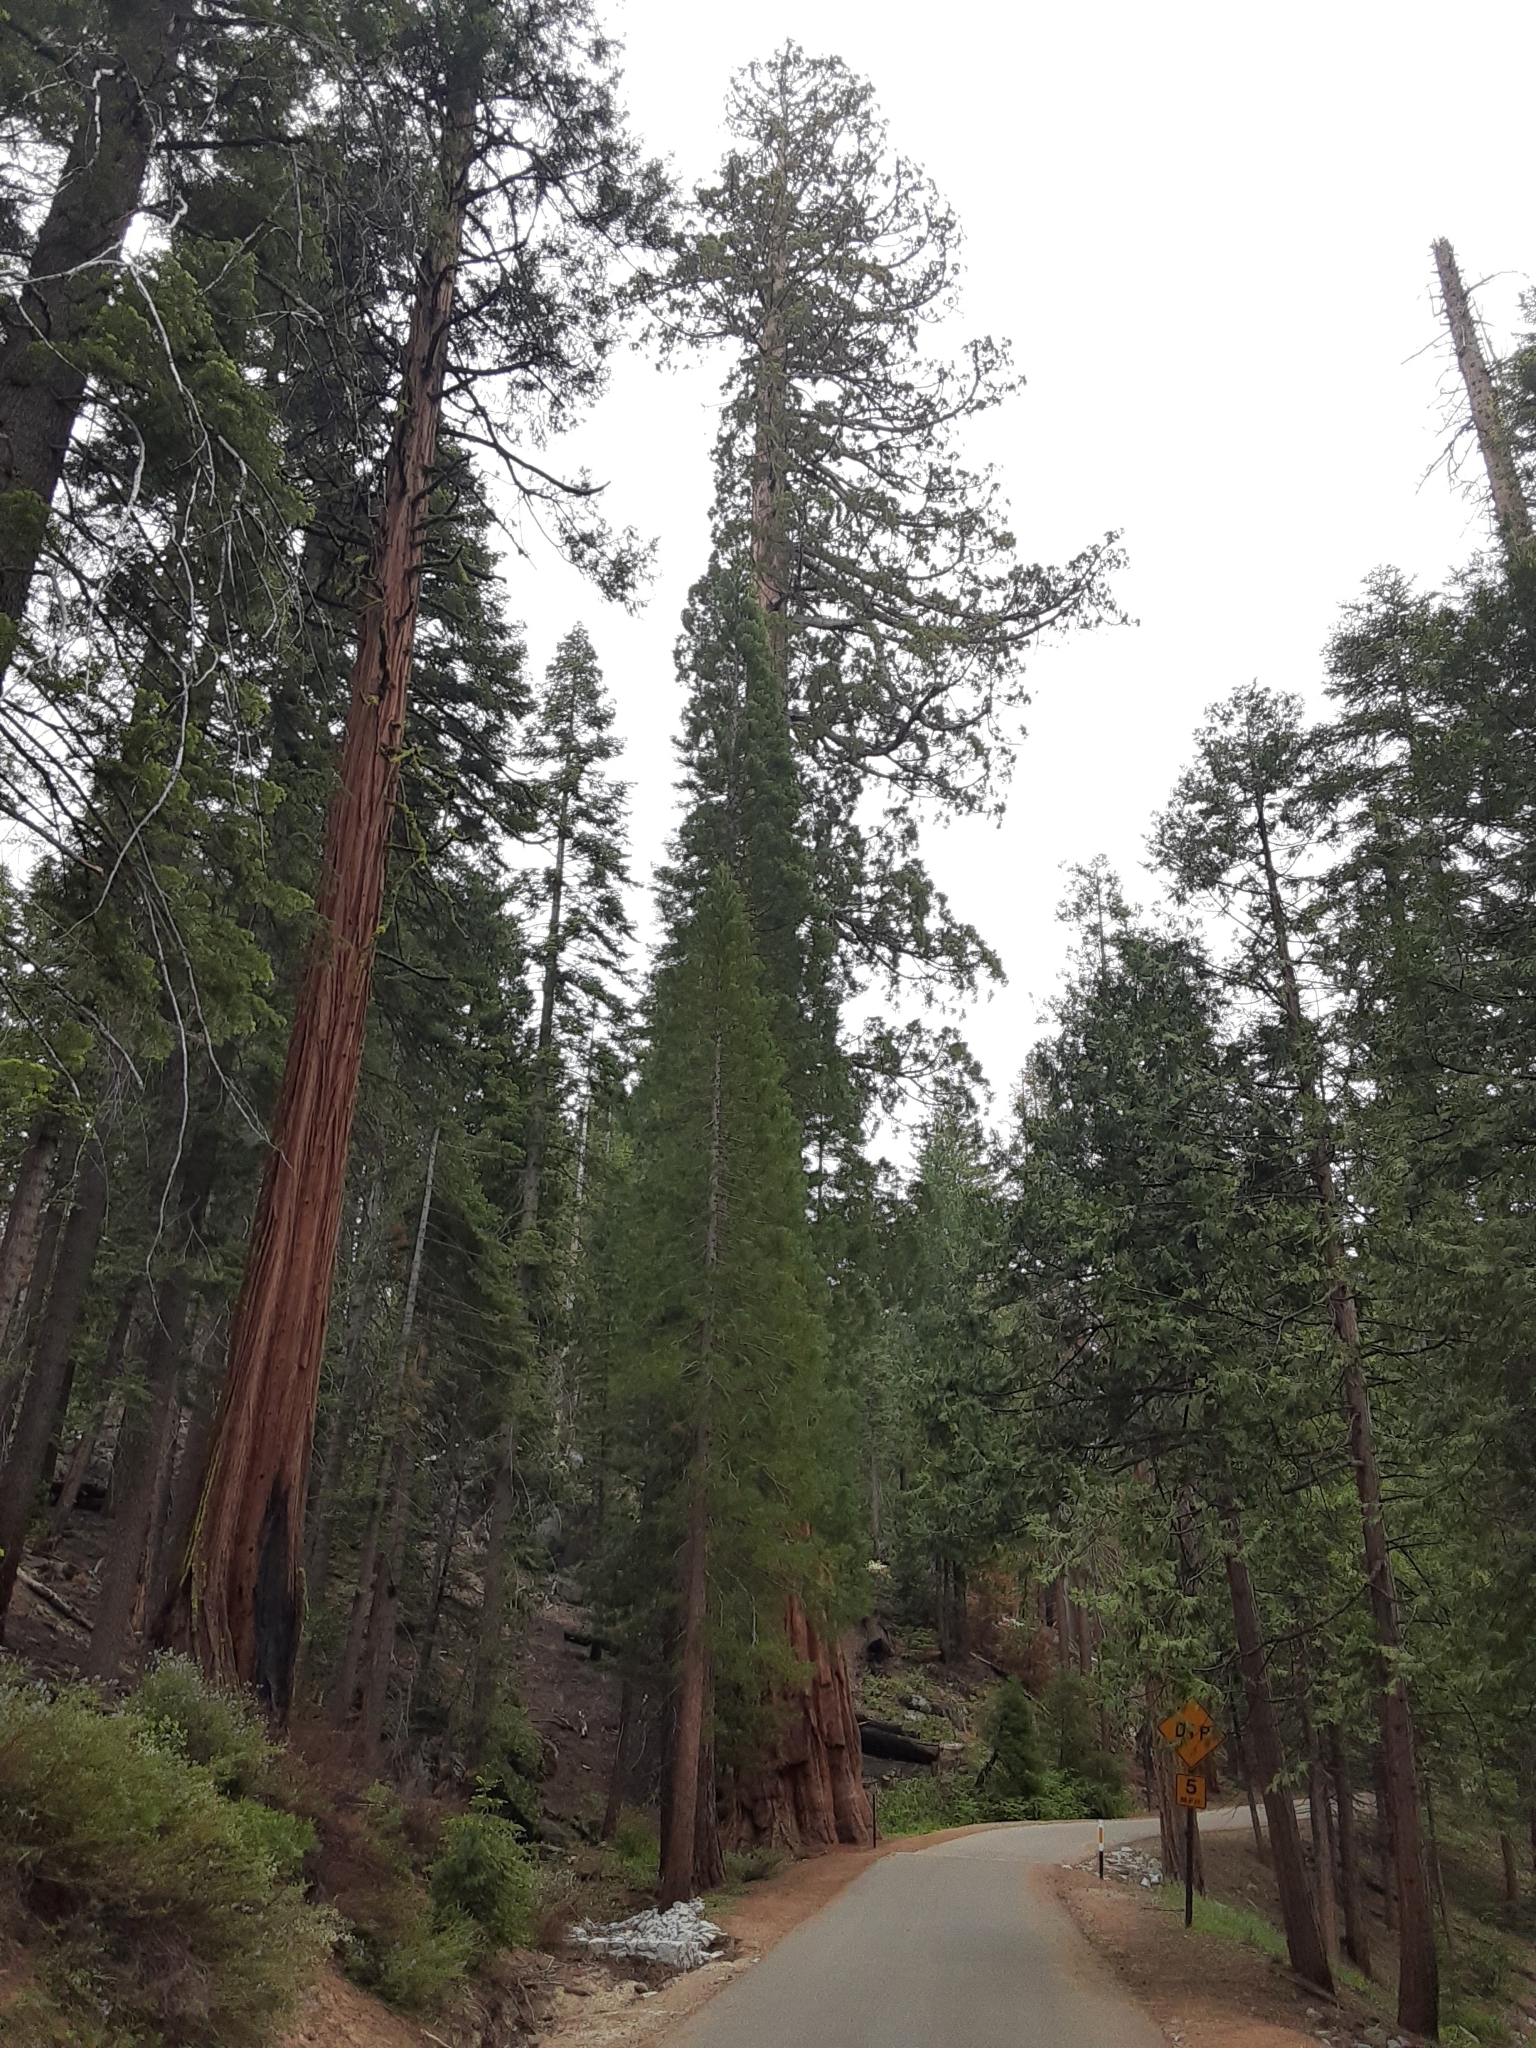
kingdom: Plantae
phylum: Tracheophyta
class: Pinopsida
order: Pinales
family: Cupressaceae
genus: Sequoiadendron
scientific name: Sequoiadendron giganteum
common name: Wellingtonia
